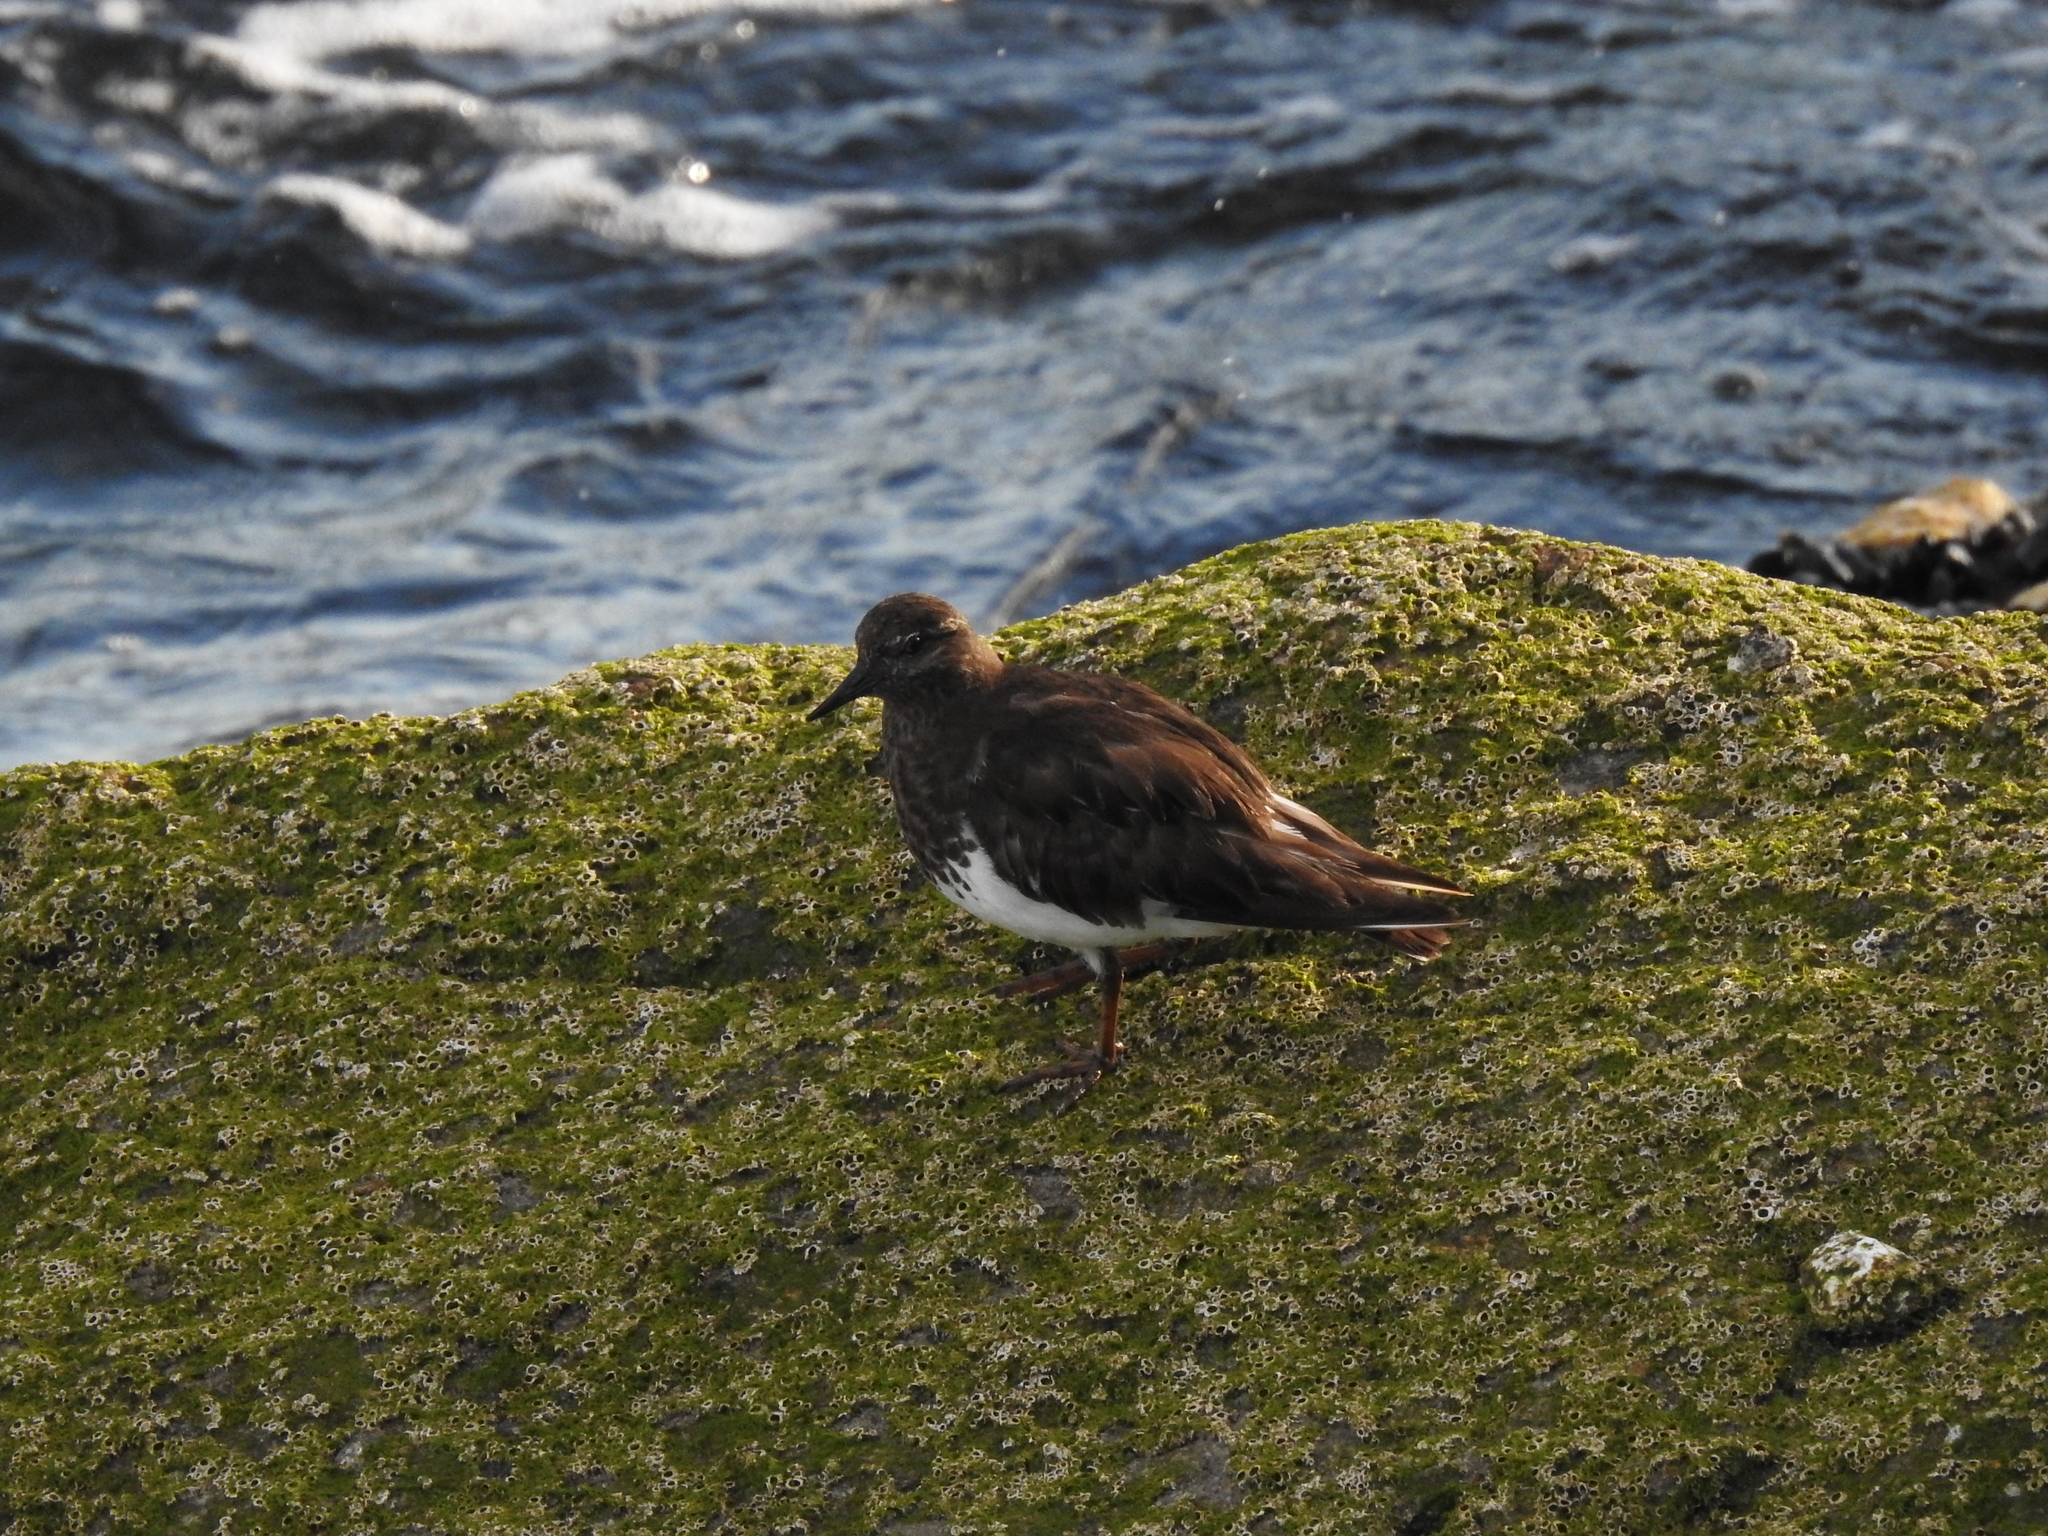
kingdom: Animalia
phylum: Chordata
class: Aves
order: Charadriiformes
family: Scolopacidae
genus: Arenaria
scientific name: Arenaria melanocephala
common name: Black turnstone
